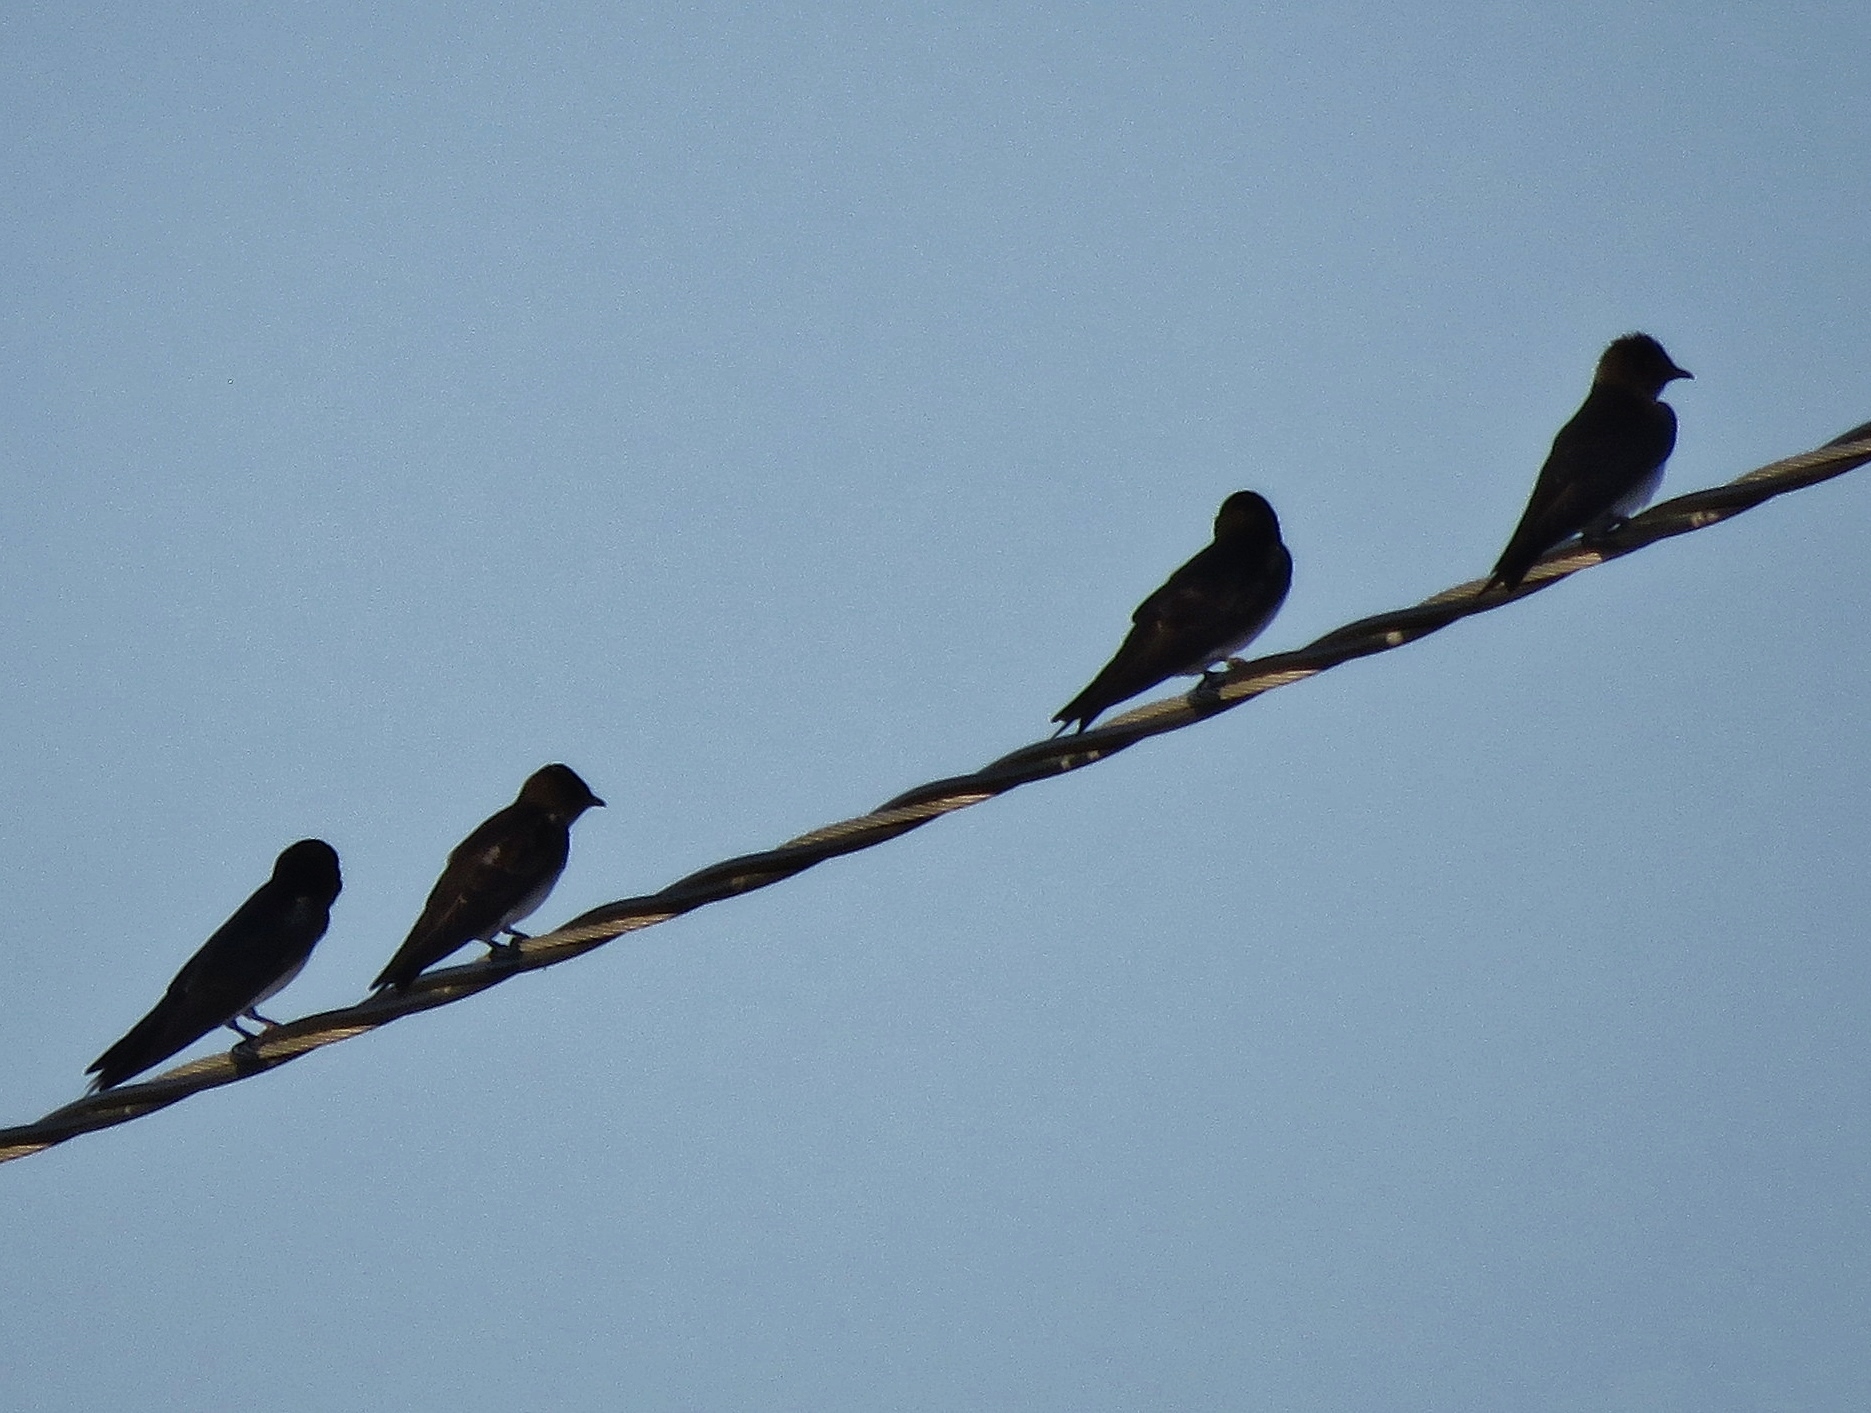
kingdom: Animalia
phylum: Chordata
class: Aves
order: Passeriformes
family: Hirundinidae
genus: Progne
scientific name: Progne chalybea
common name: Grey-breasted martin
